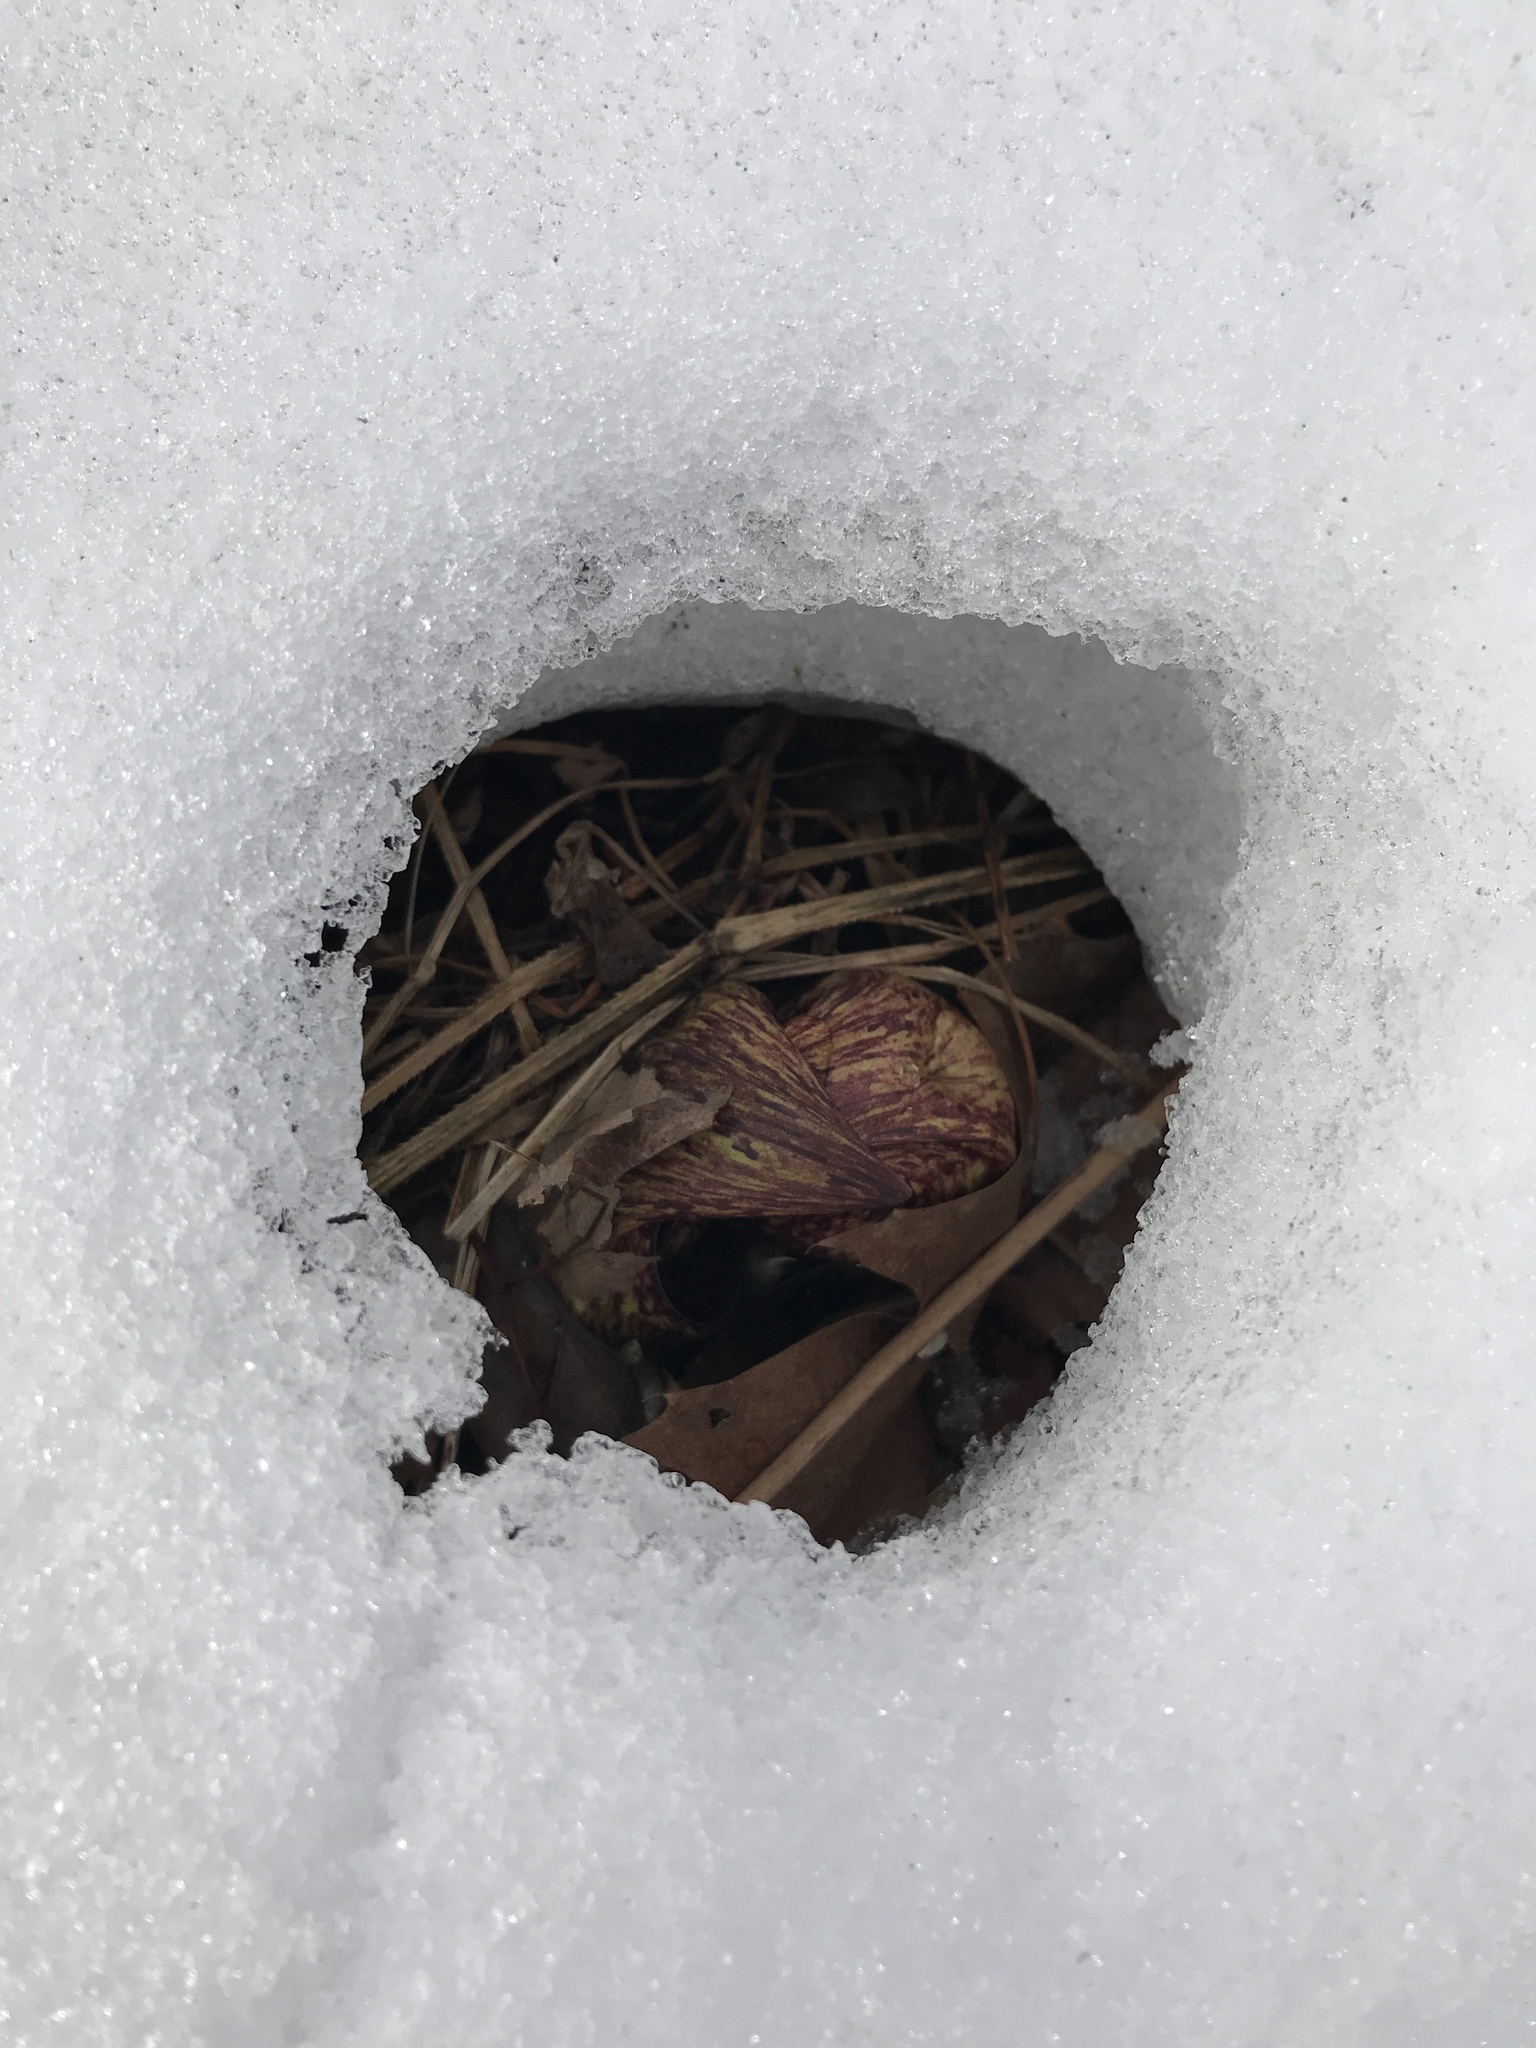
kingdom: Plantae
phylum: Tracheophyta
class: Liliopsida
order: Alismatales
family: Araceae
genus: Symplocarpus
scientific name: Symplocarpus foetidus
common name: Eastern skunk cabbage
